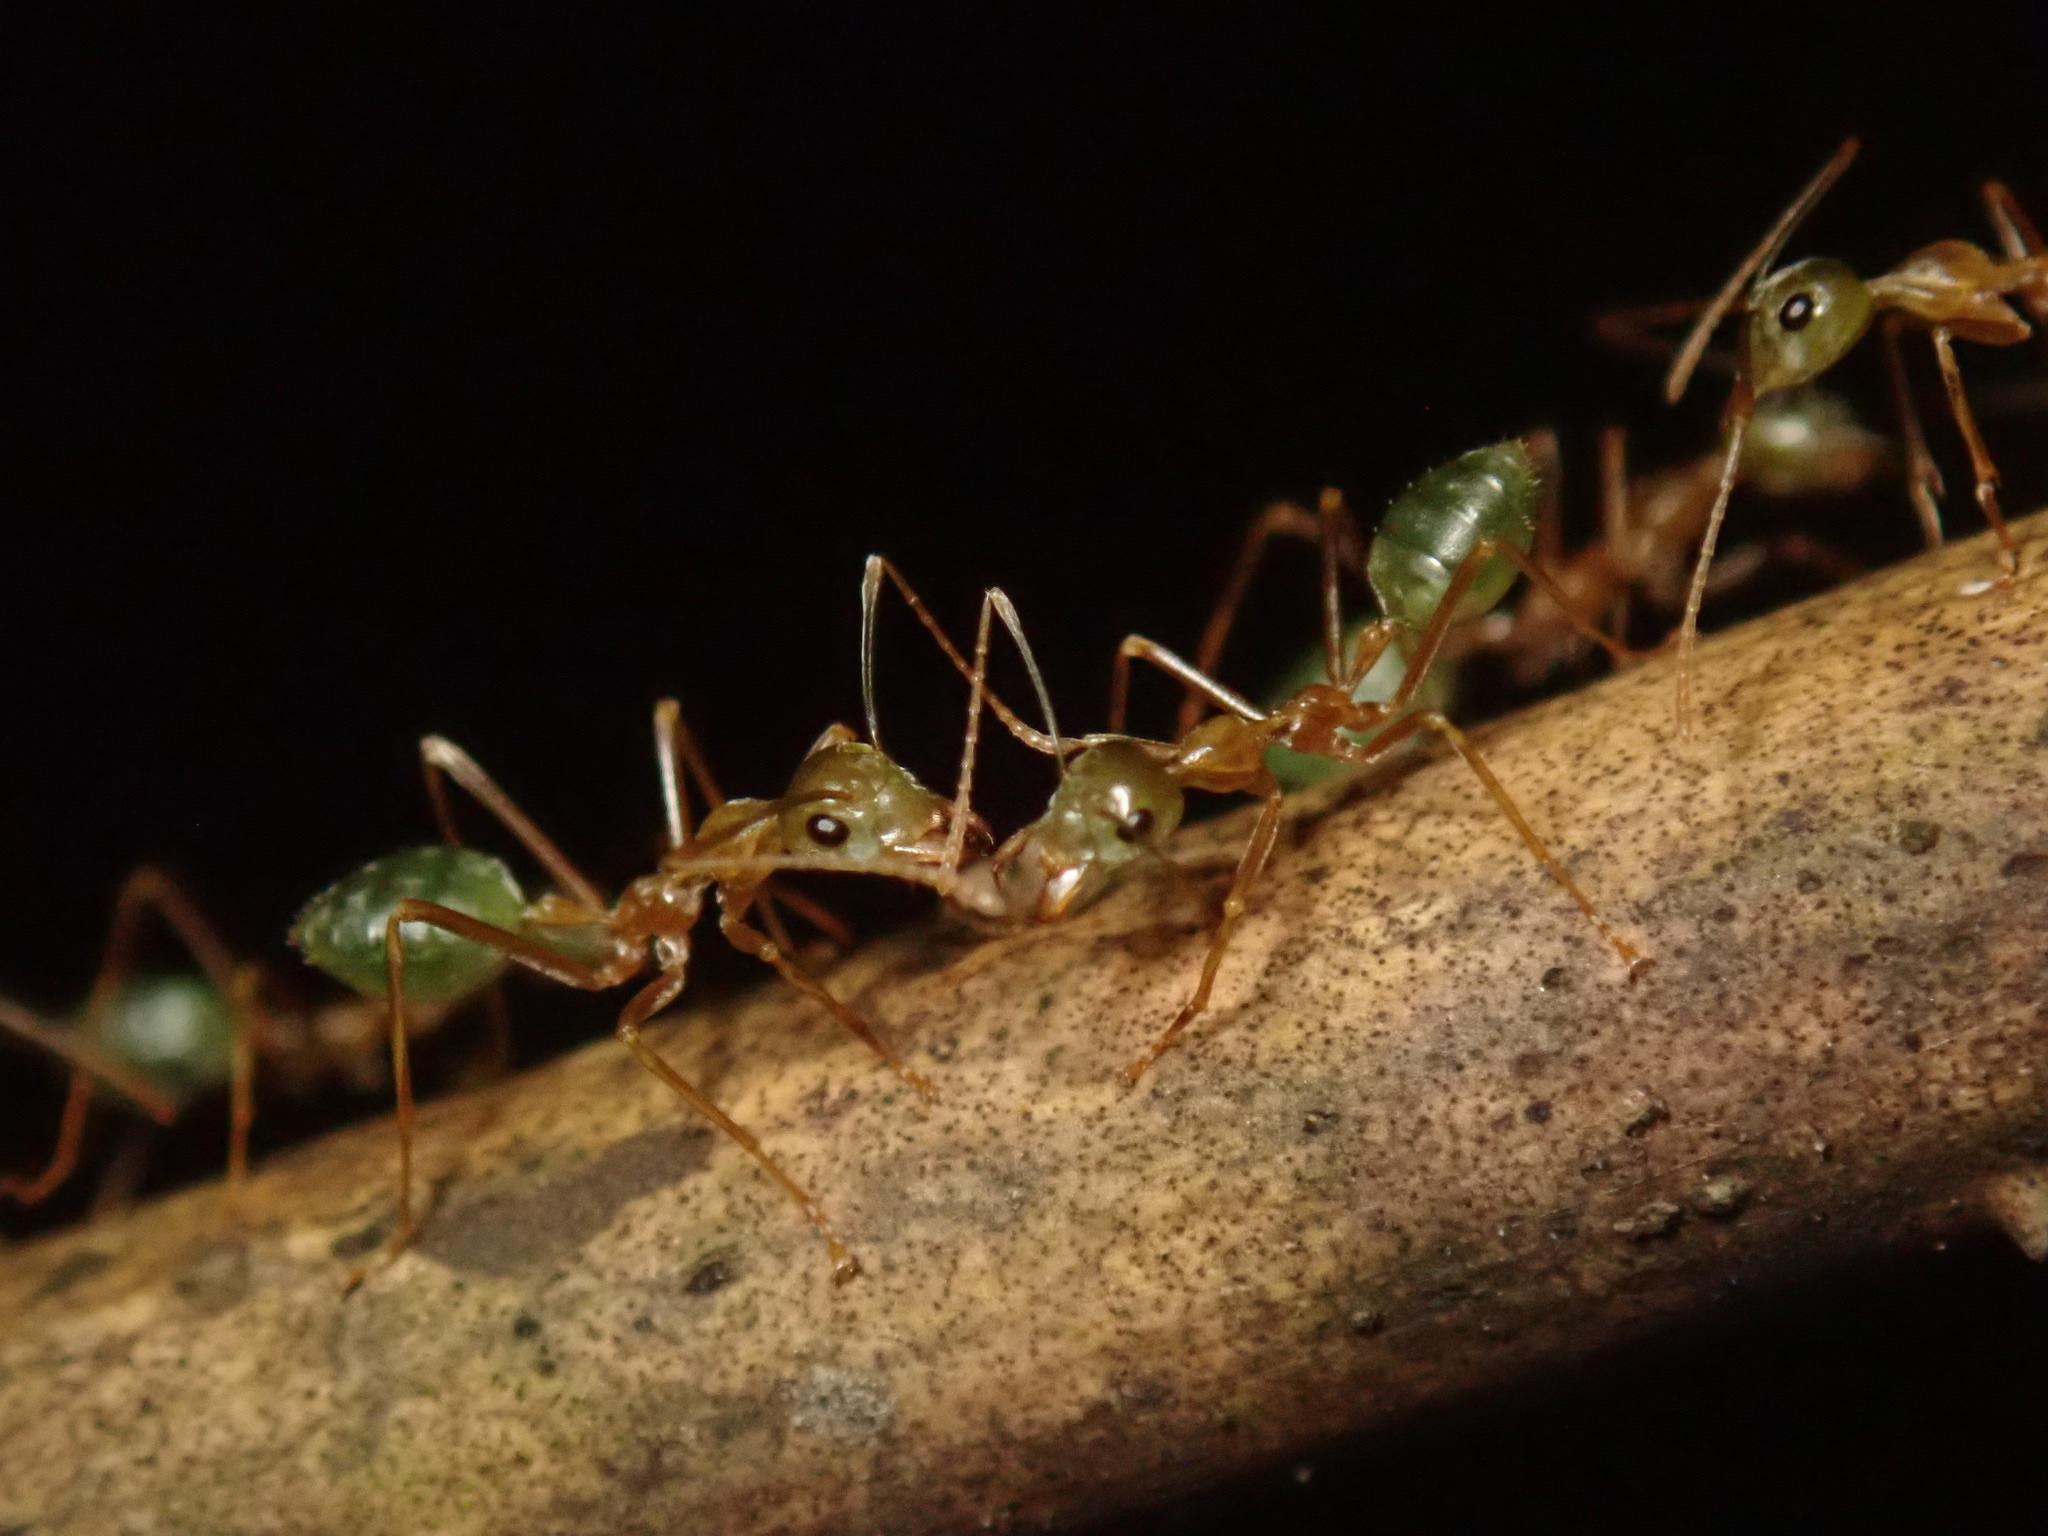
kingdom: Animalia
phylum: Arthropoda
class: Insecta
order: Hymenoptera
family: Formicidae
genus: Oecophylla
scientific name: Oecophylla smaragdina
